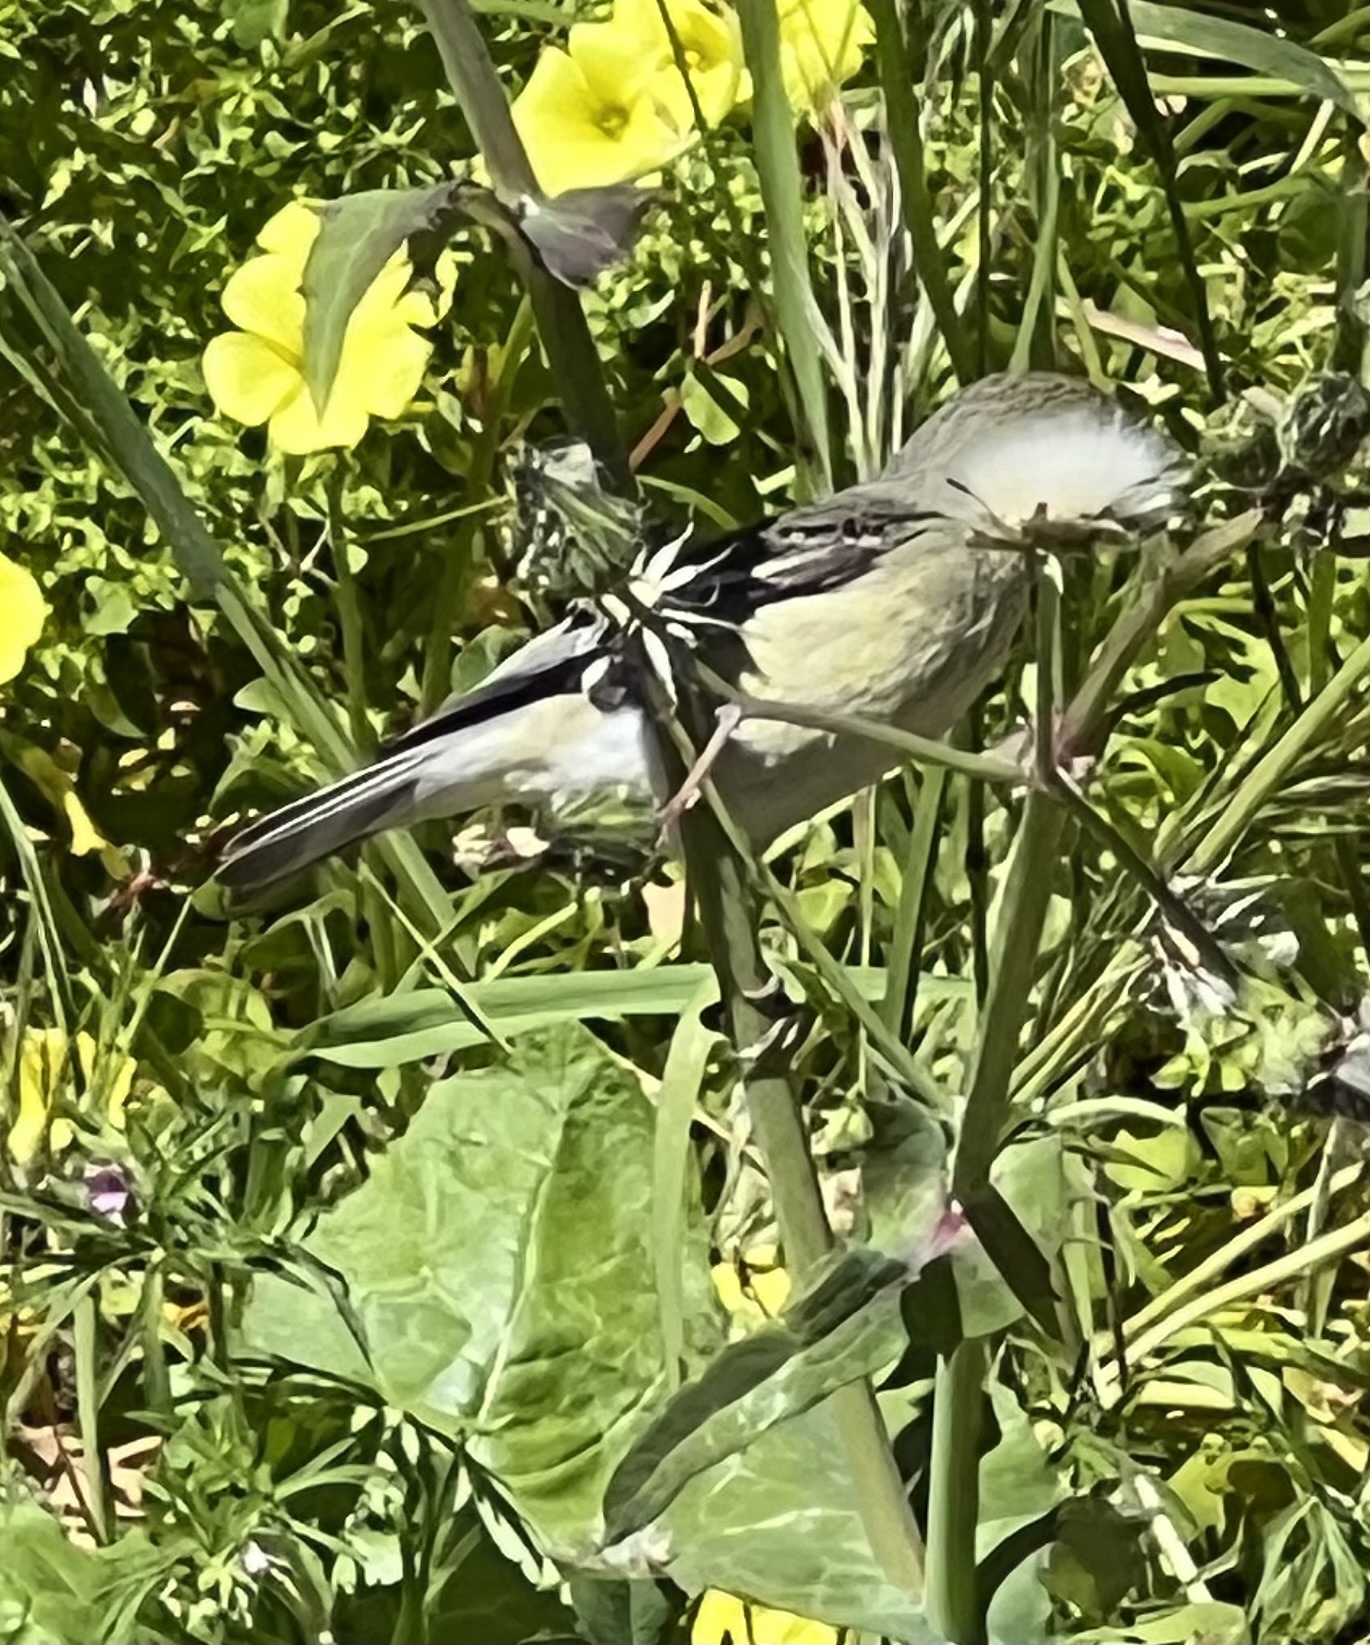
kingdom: Animalia
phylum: Chordata
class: Aves
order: Passeriformes
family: Fringillidae
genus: Spinus
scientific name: Spinus psaltria
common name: Lesser goldfinch
